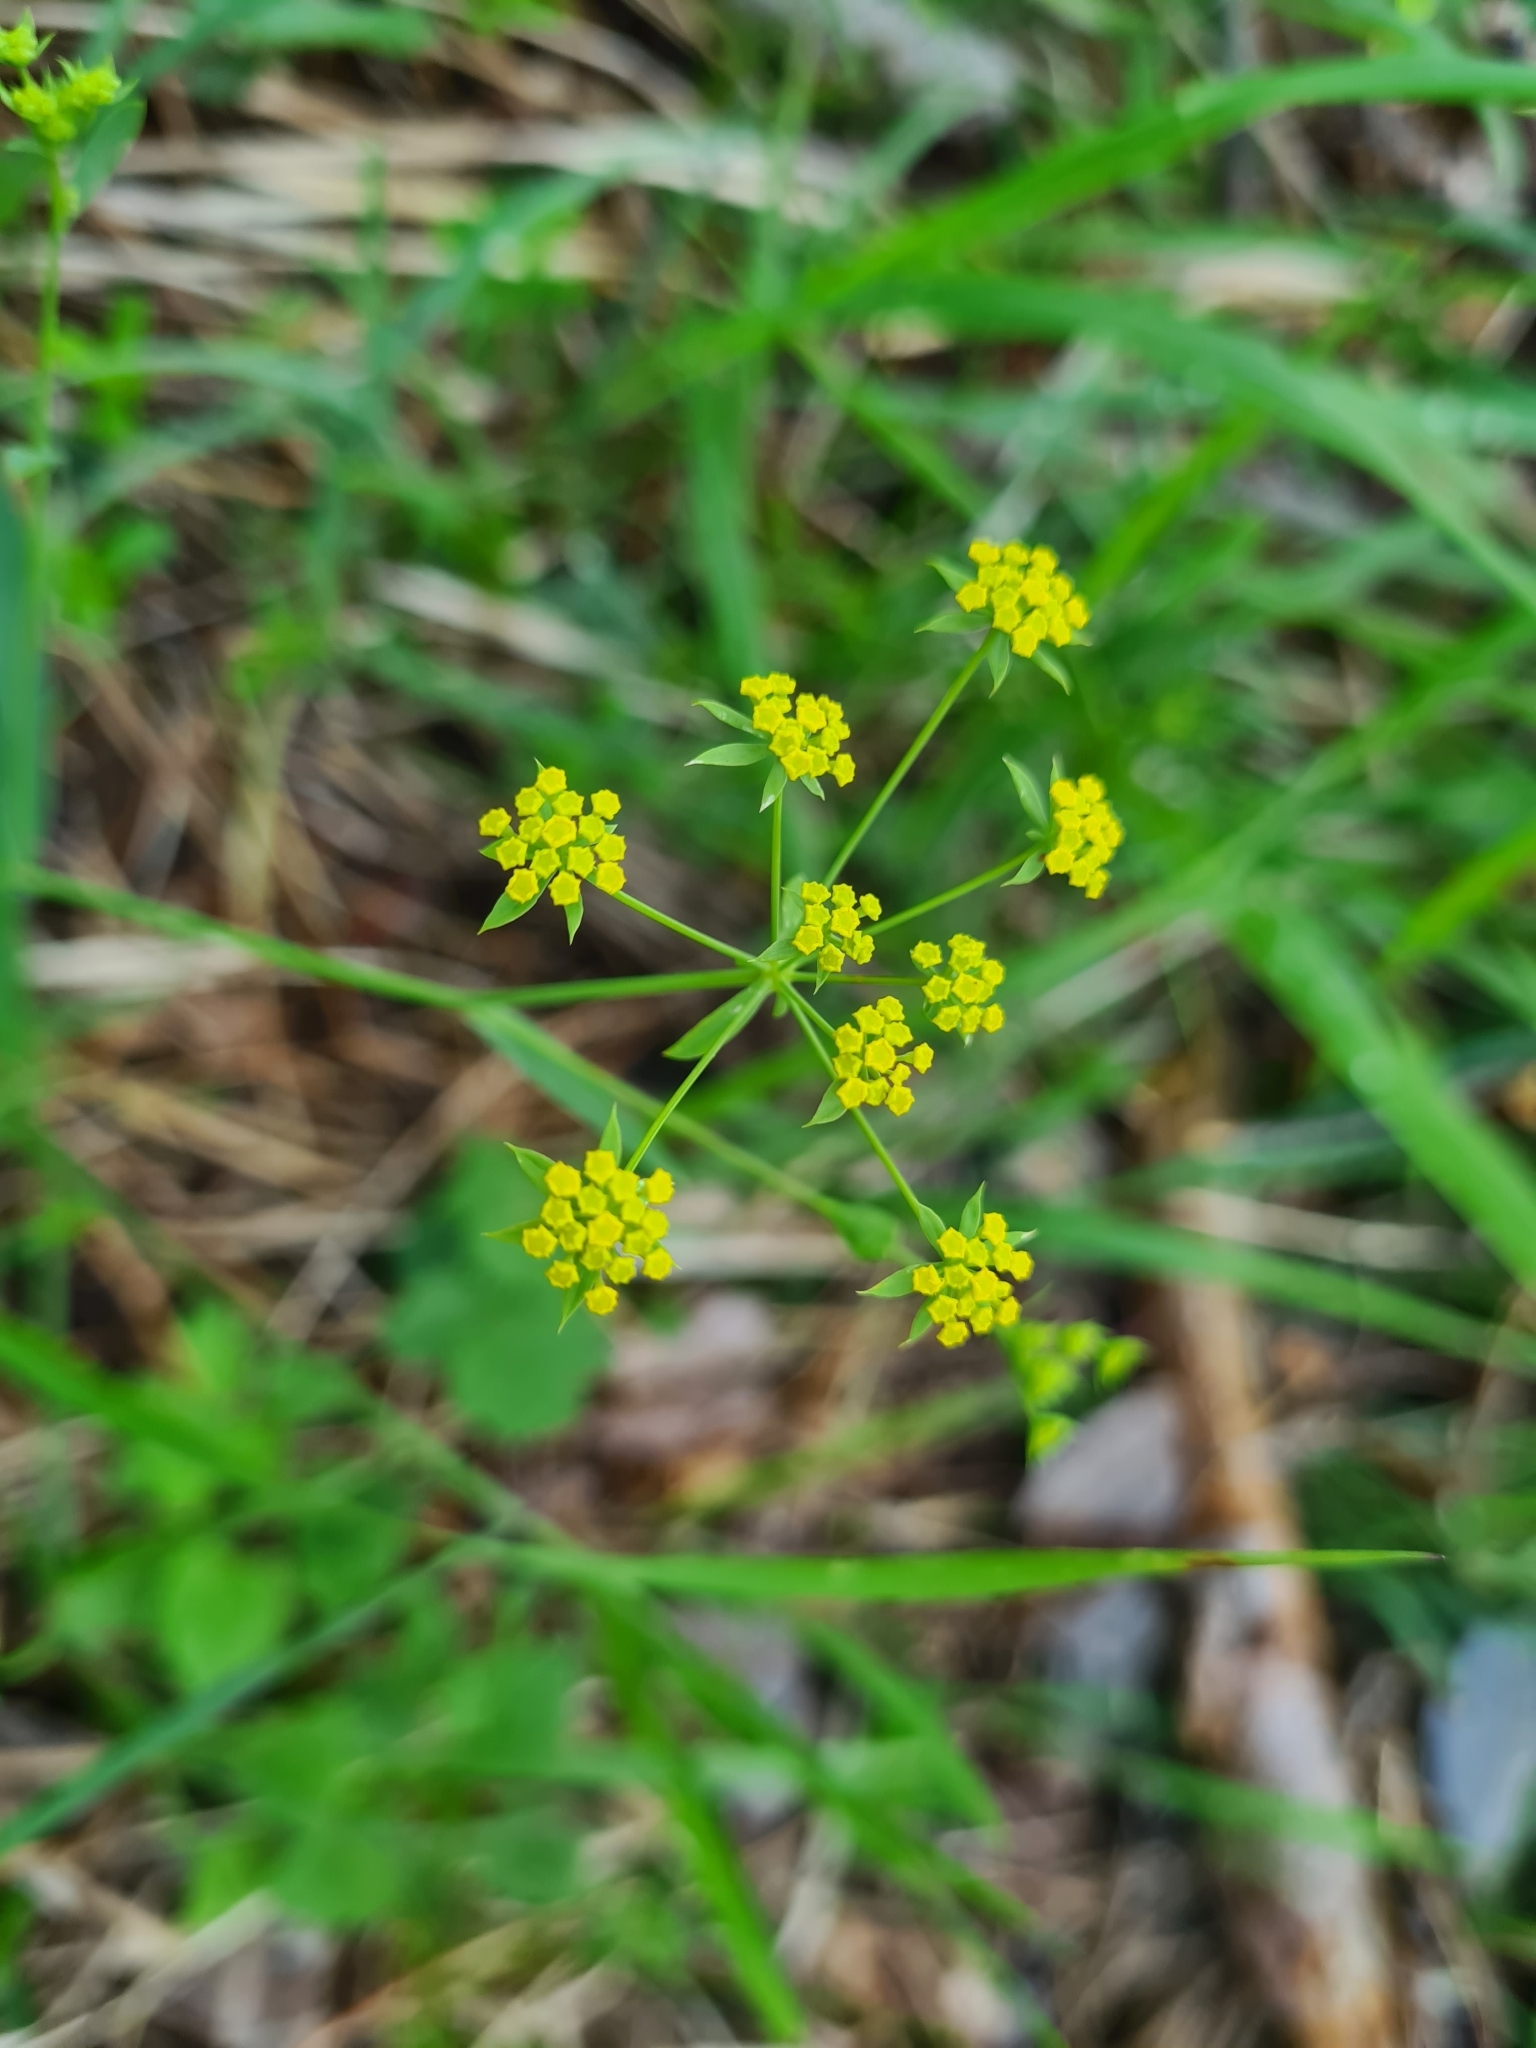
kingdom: Plantae
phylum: Tracheophyta
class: Magnoliopsida
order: Apiales
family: Apiaceae
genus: Bupleurum
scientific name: Bupleurum falcatum
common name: Sickle-leaved hare's-ear
